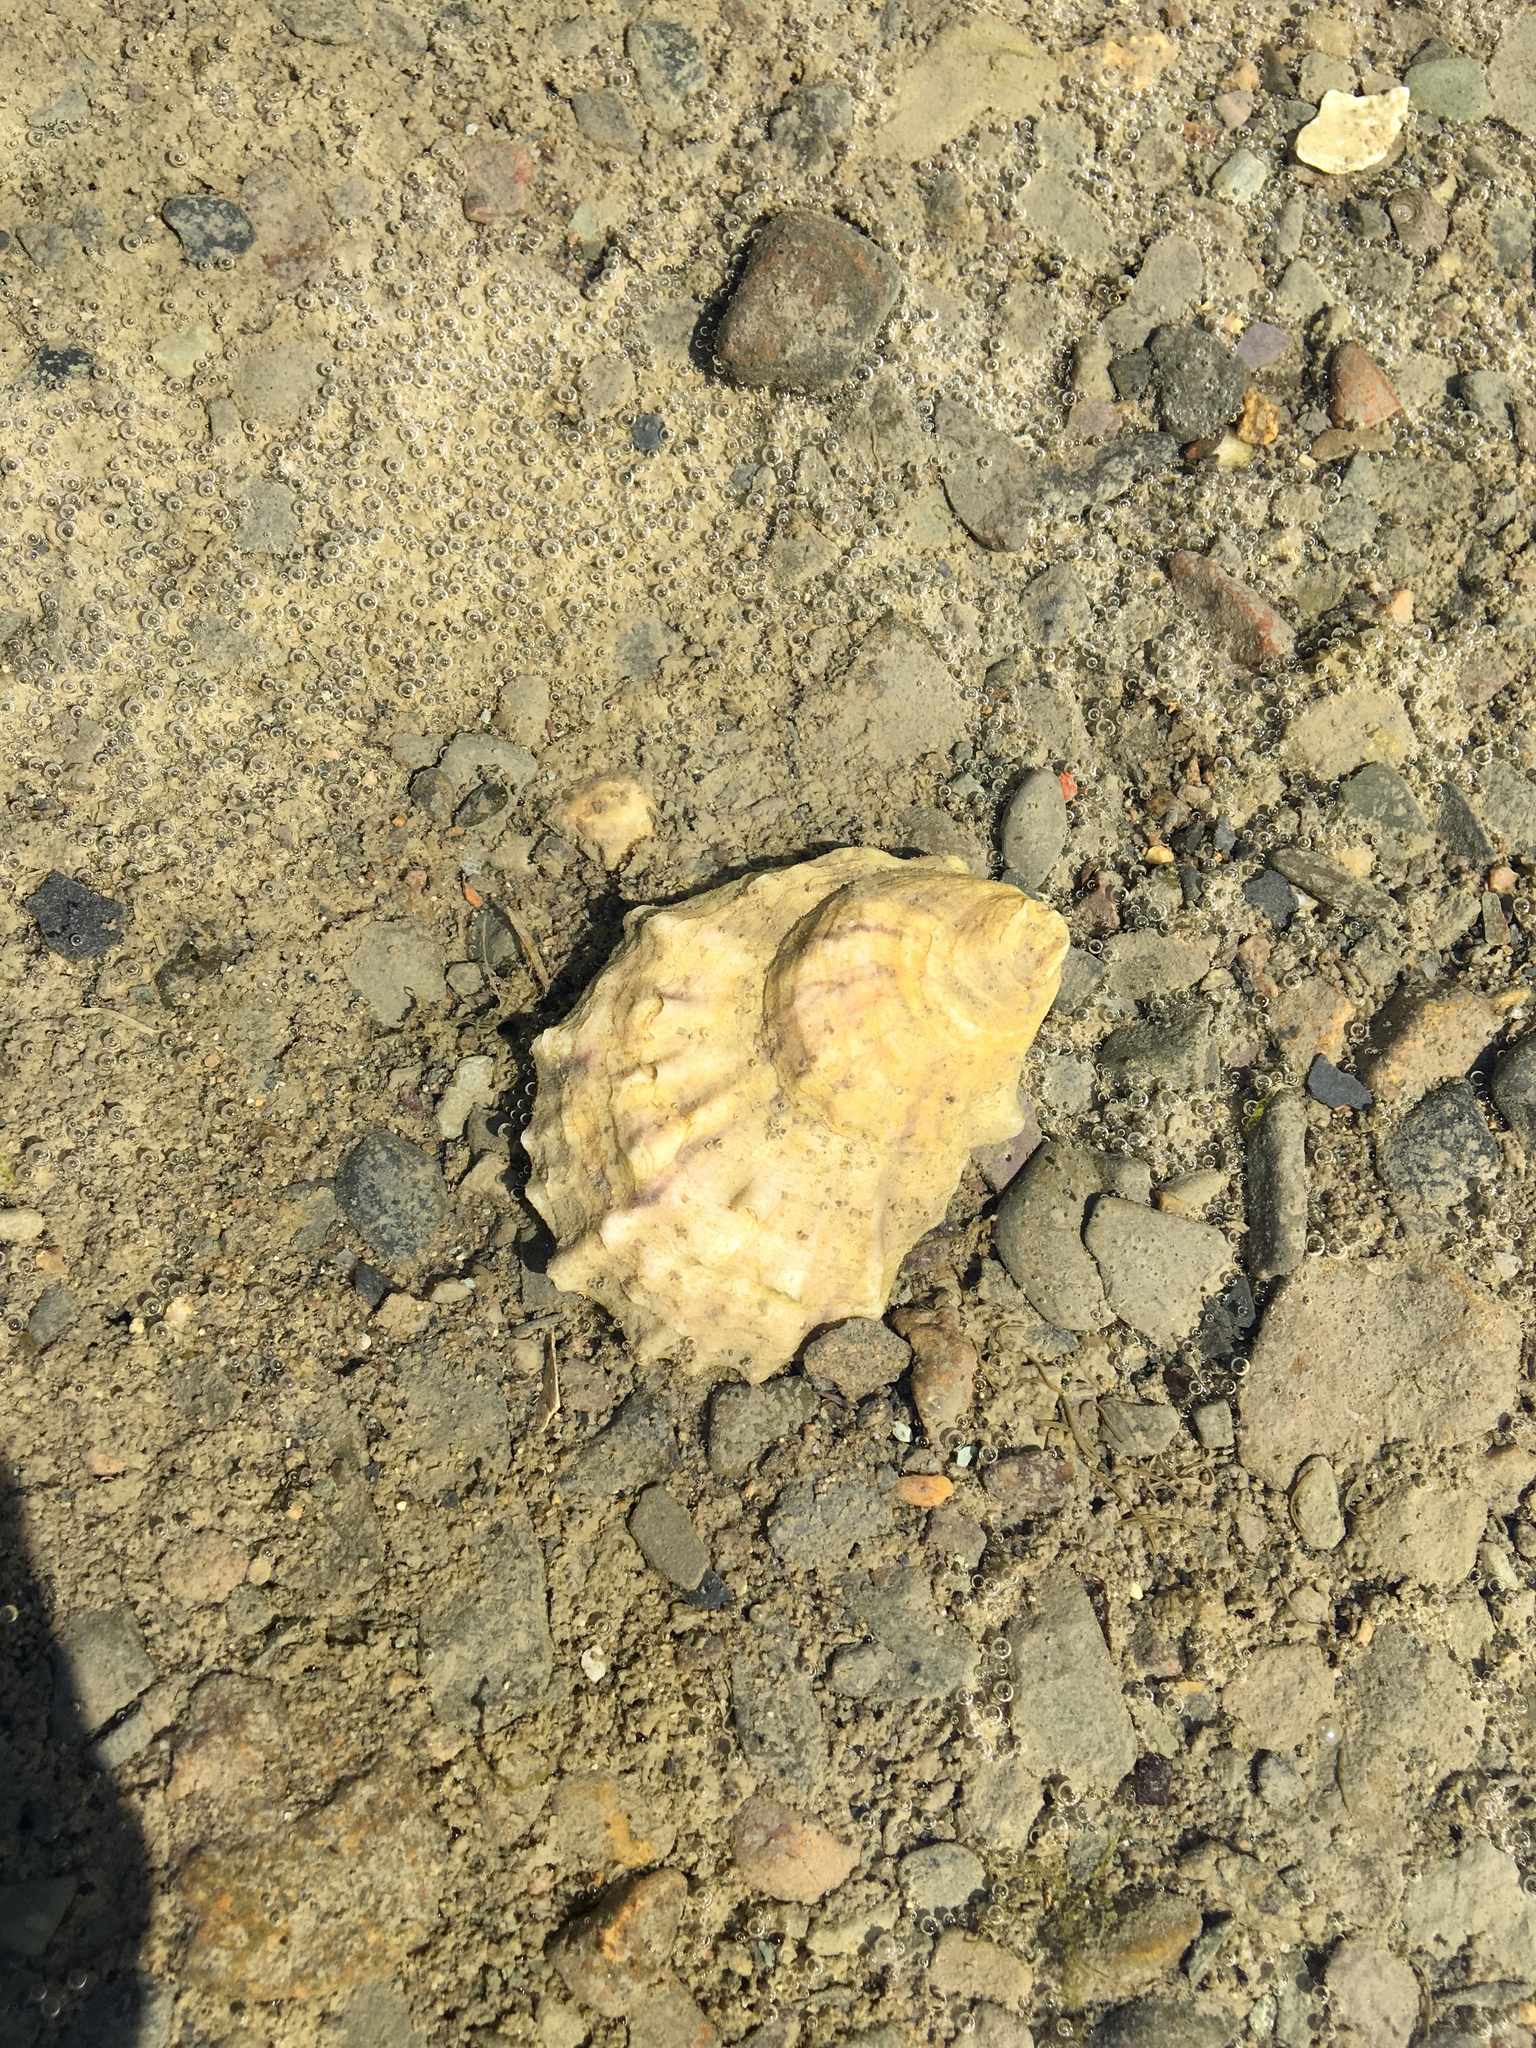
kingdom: Animalia
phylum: Mollusca
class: Bivalvia
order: Ostreida
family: Ostreidae
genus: Crassostrea
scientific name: Crassostrea virginica
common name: American oyster
